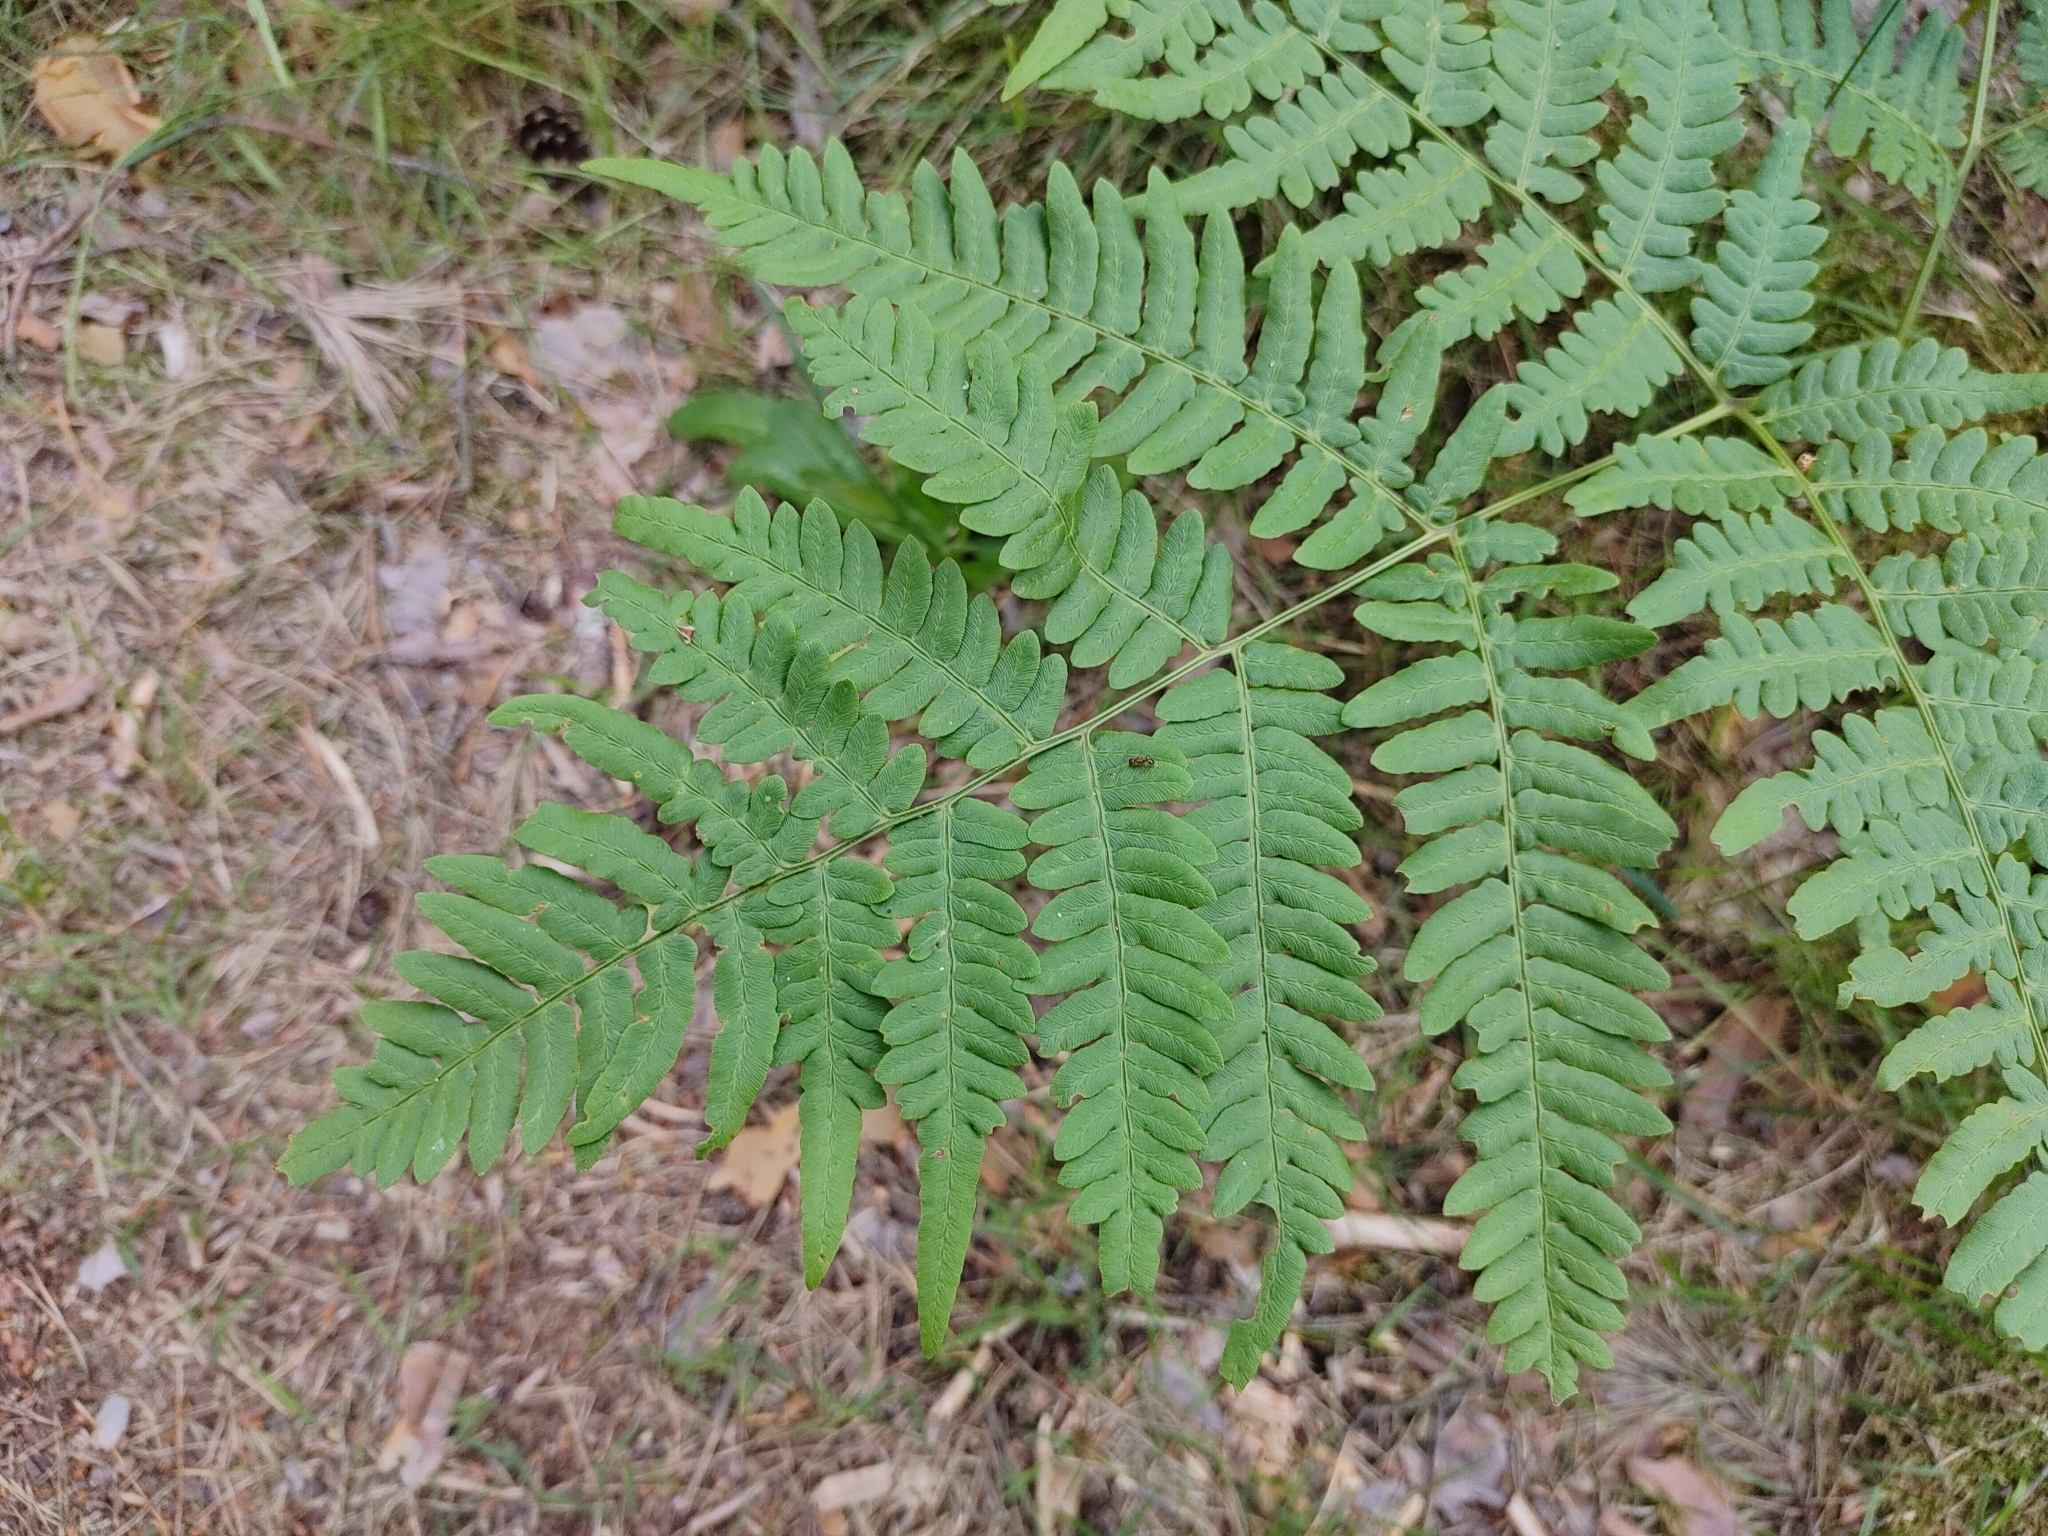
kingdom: Plantae
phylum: Tracheophyta
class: Polypodiopsida
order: Polypodiales
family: Dennstaedtiaceae
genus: Pteridium
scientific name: Pteridium aquilinum
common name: Bracken
